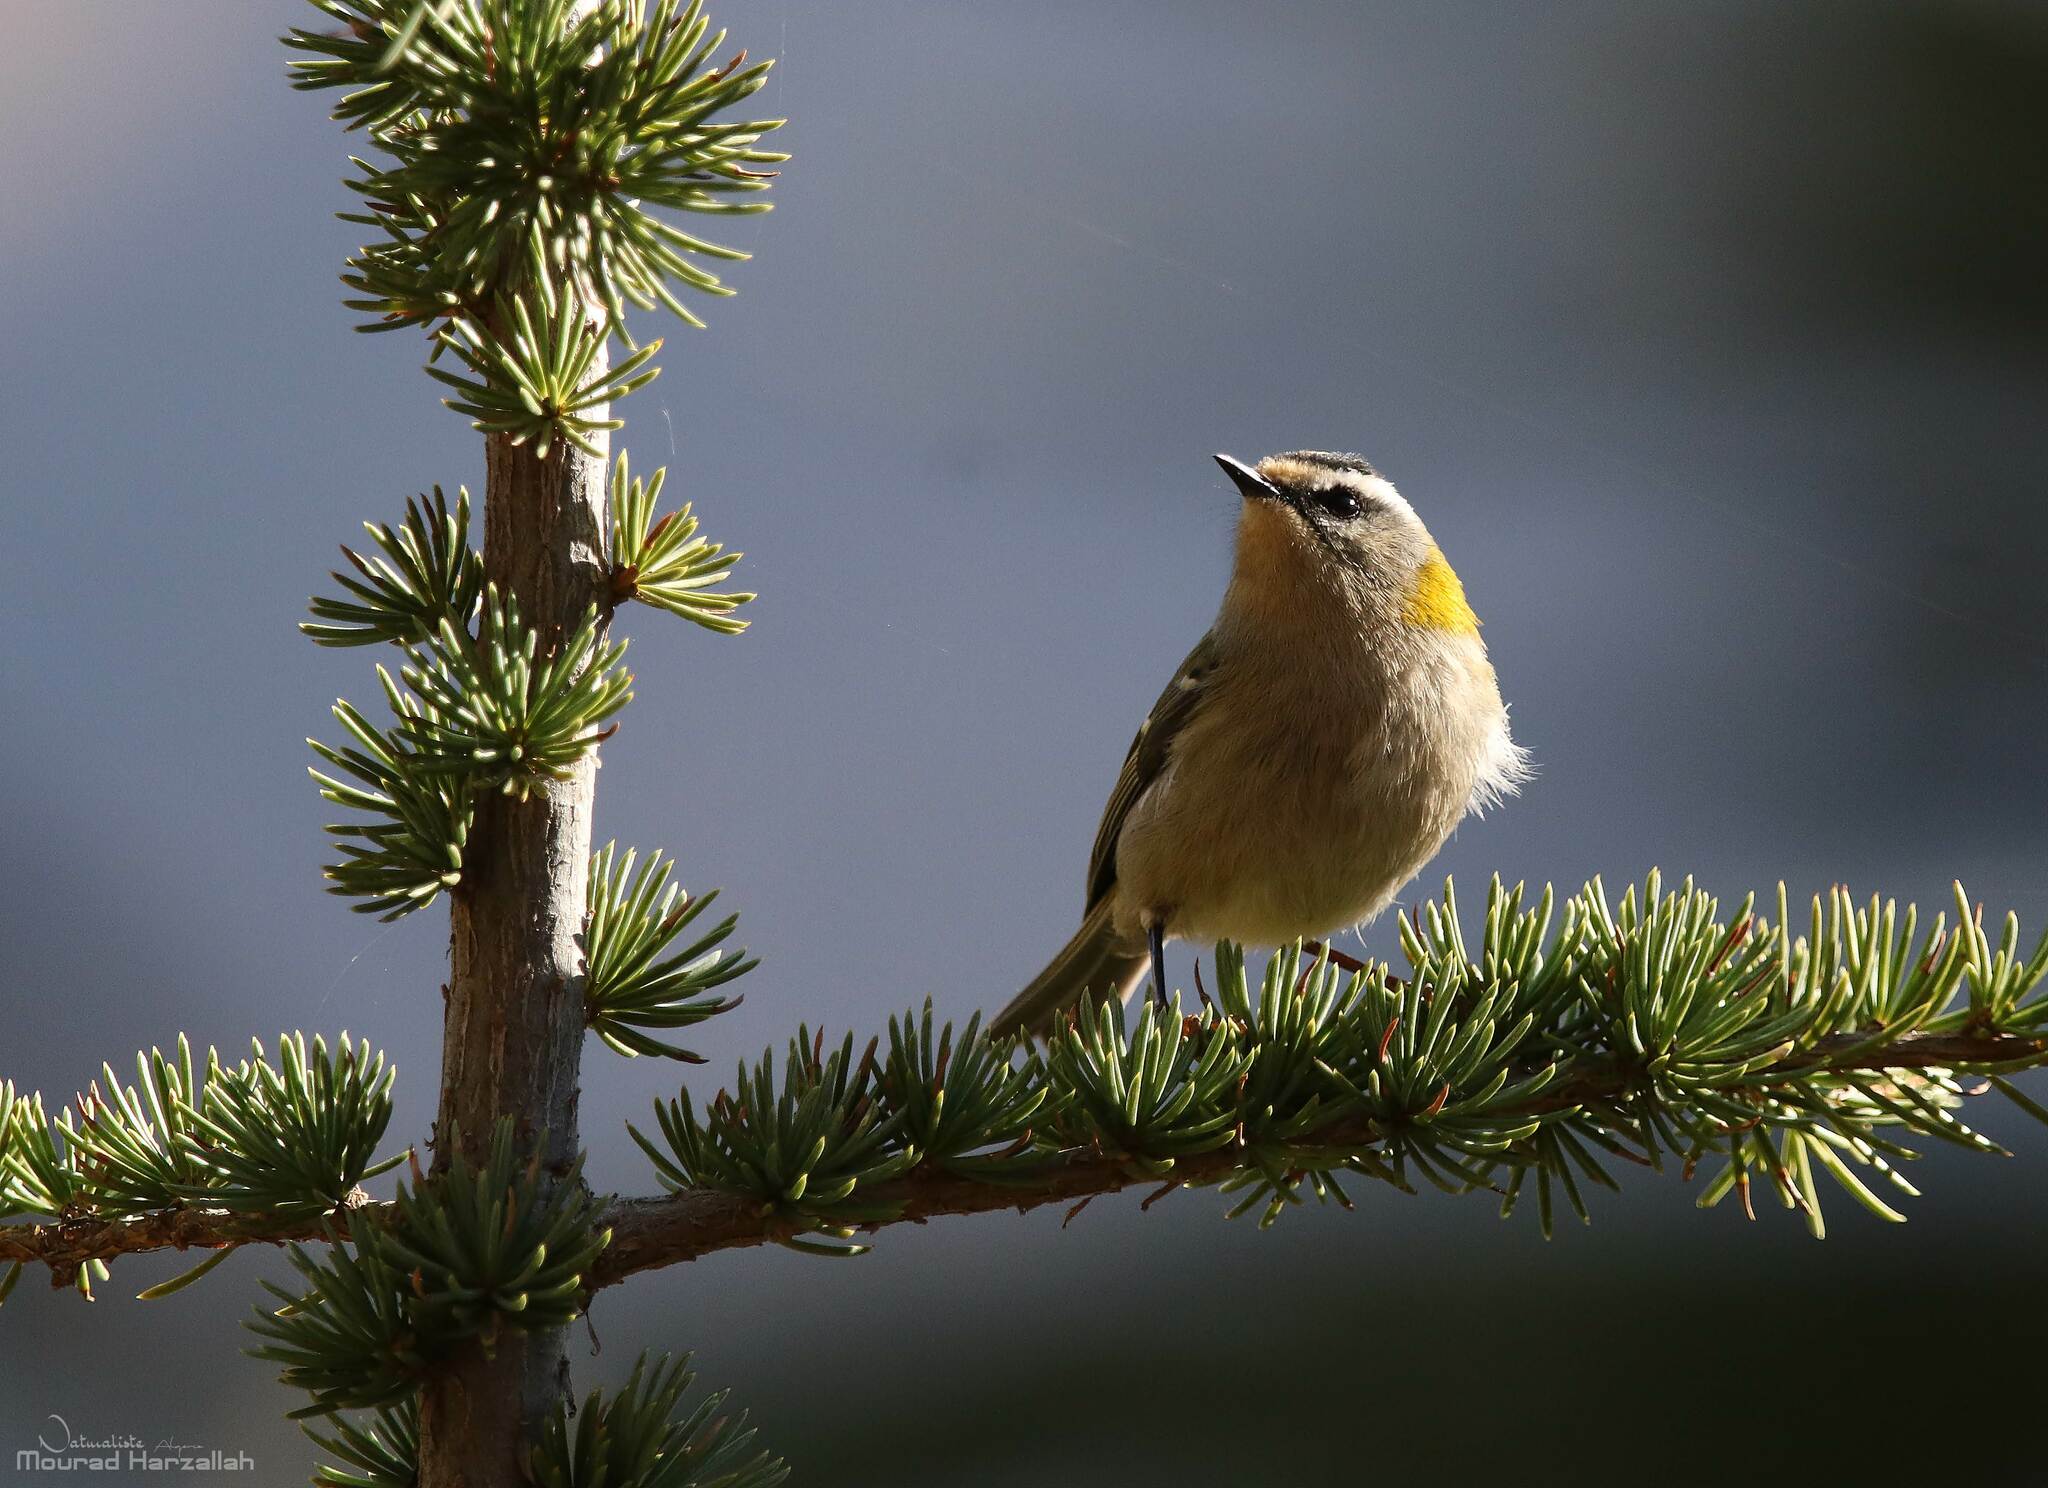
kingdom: Animalia
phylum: Chordata
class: Aves
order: Passeriformes
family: Regulidae
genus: Regulus
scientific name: Regulus ignicapilla
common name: Firecrest
